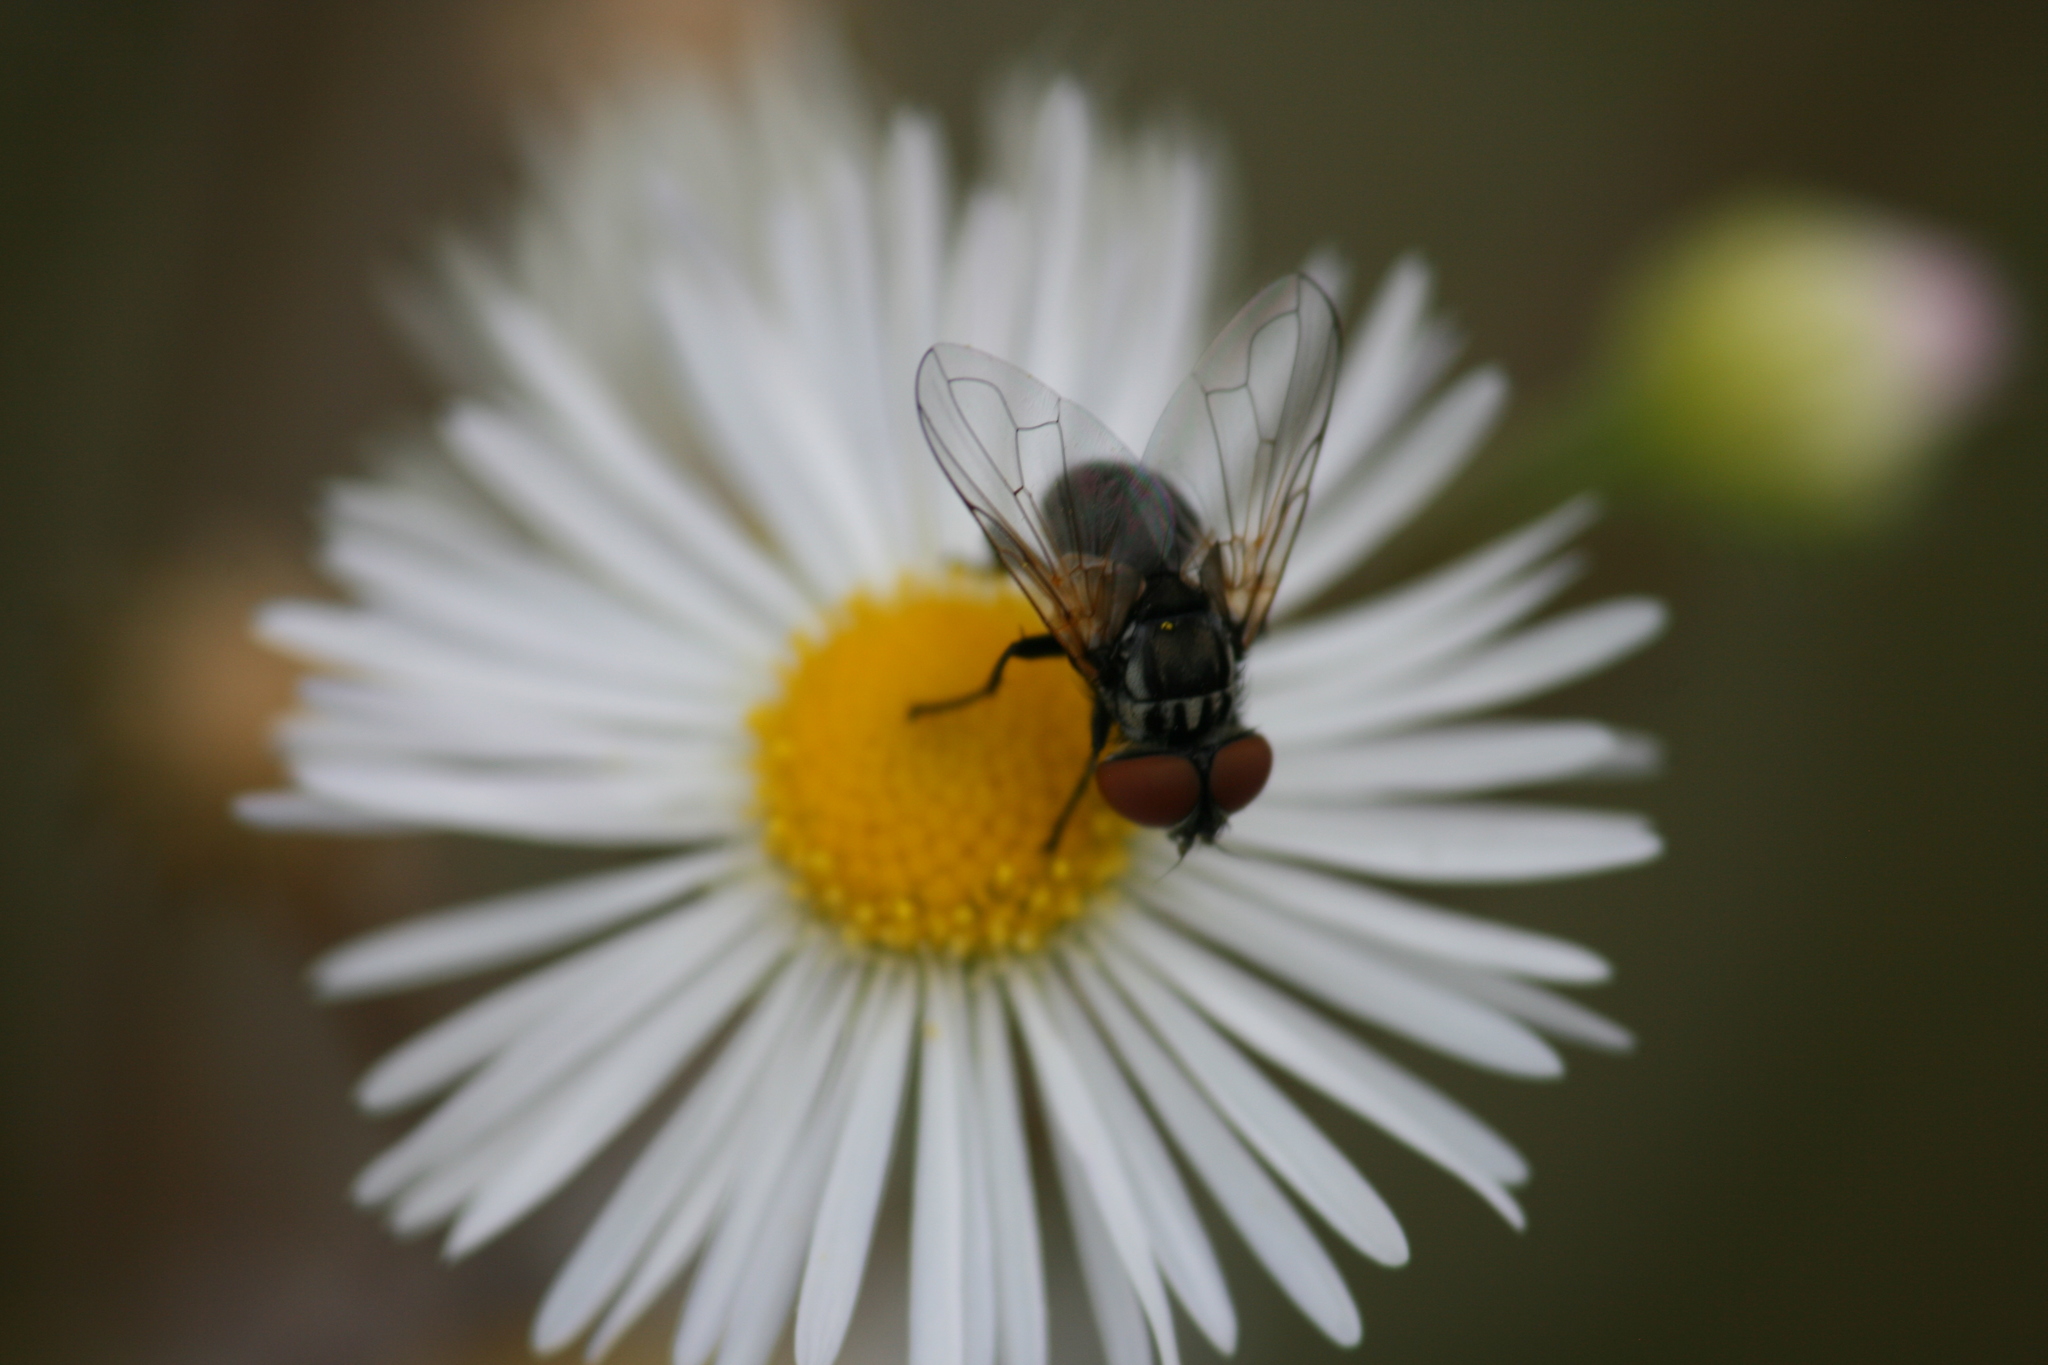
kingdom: Animalia
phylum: Arthropoda
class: Insecta
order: Diptera
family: Tachinidae
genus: Phasia
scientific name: Phasia obesa
